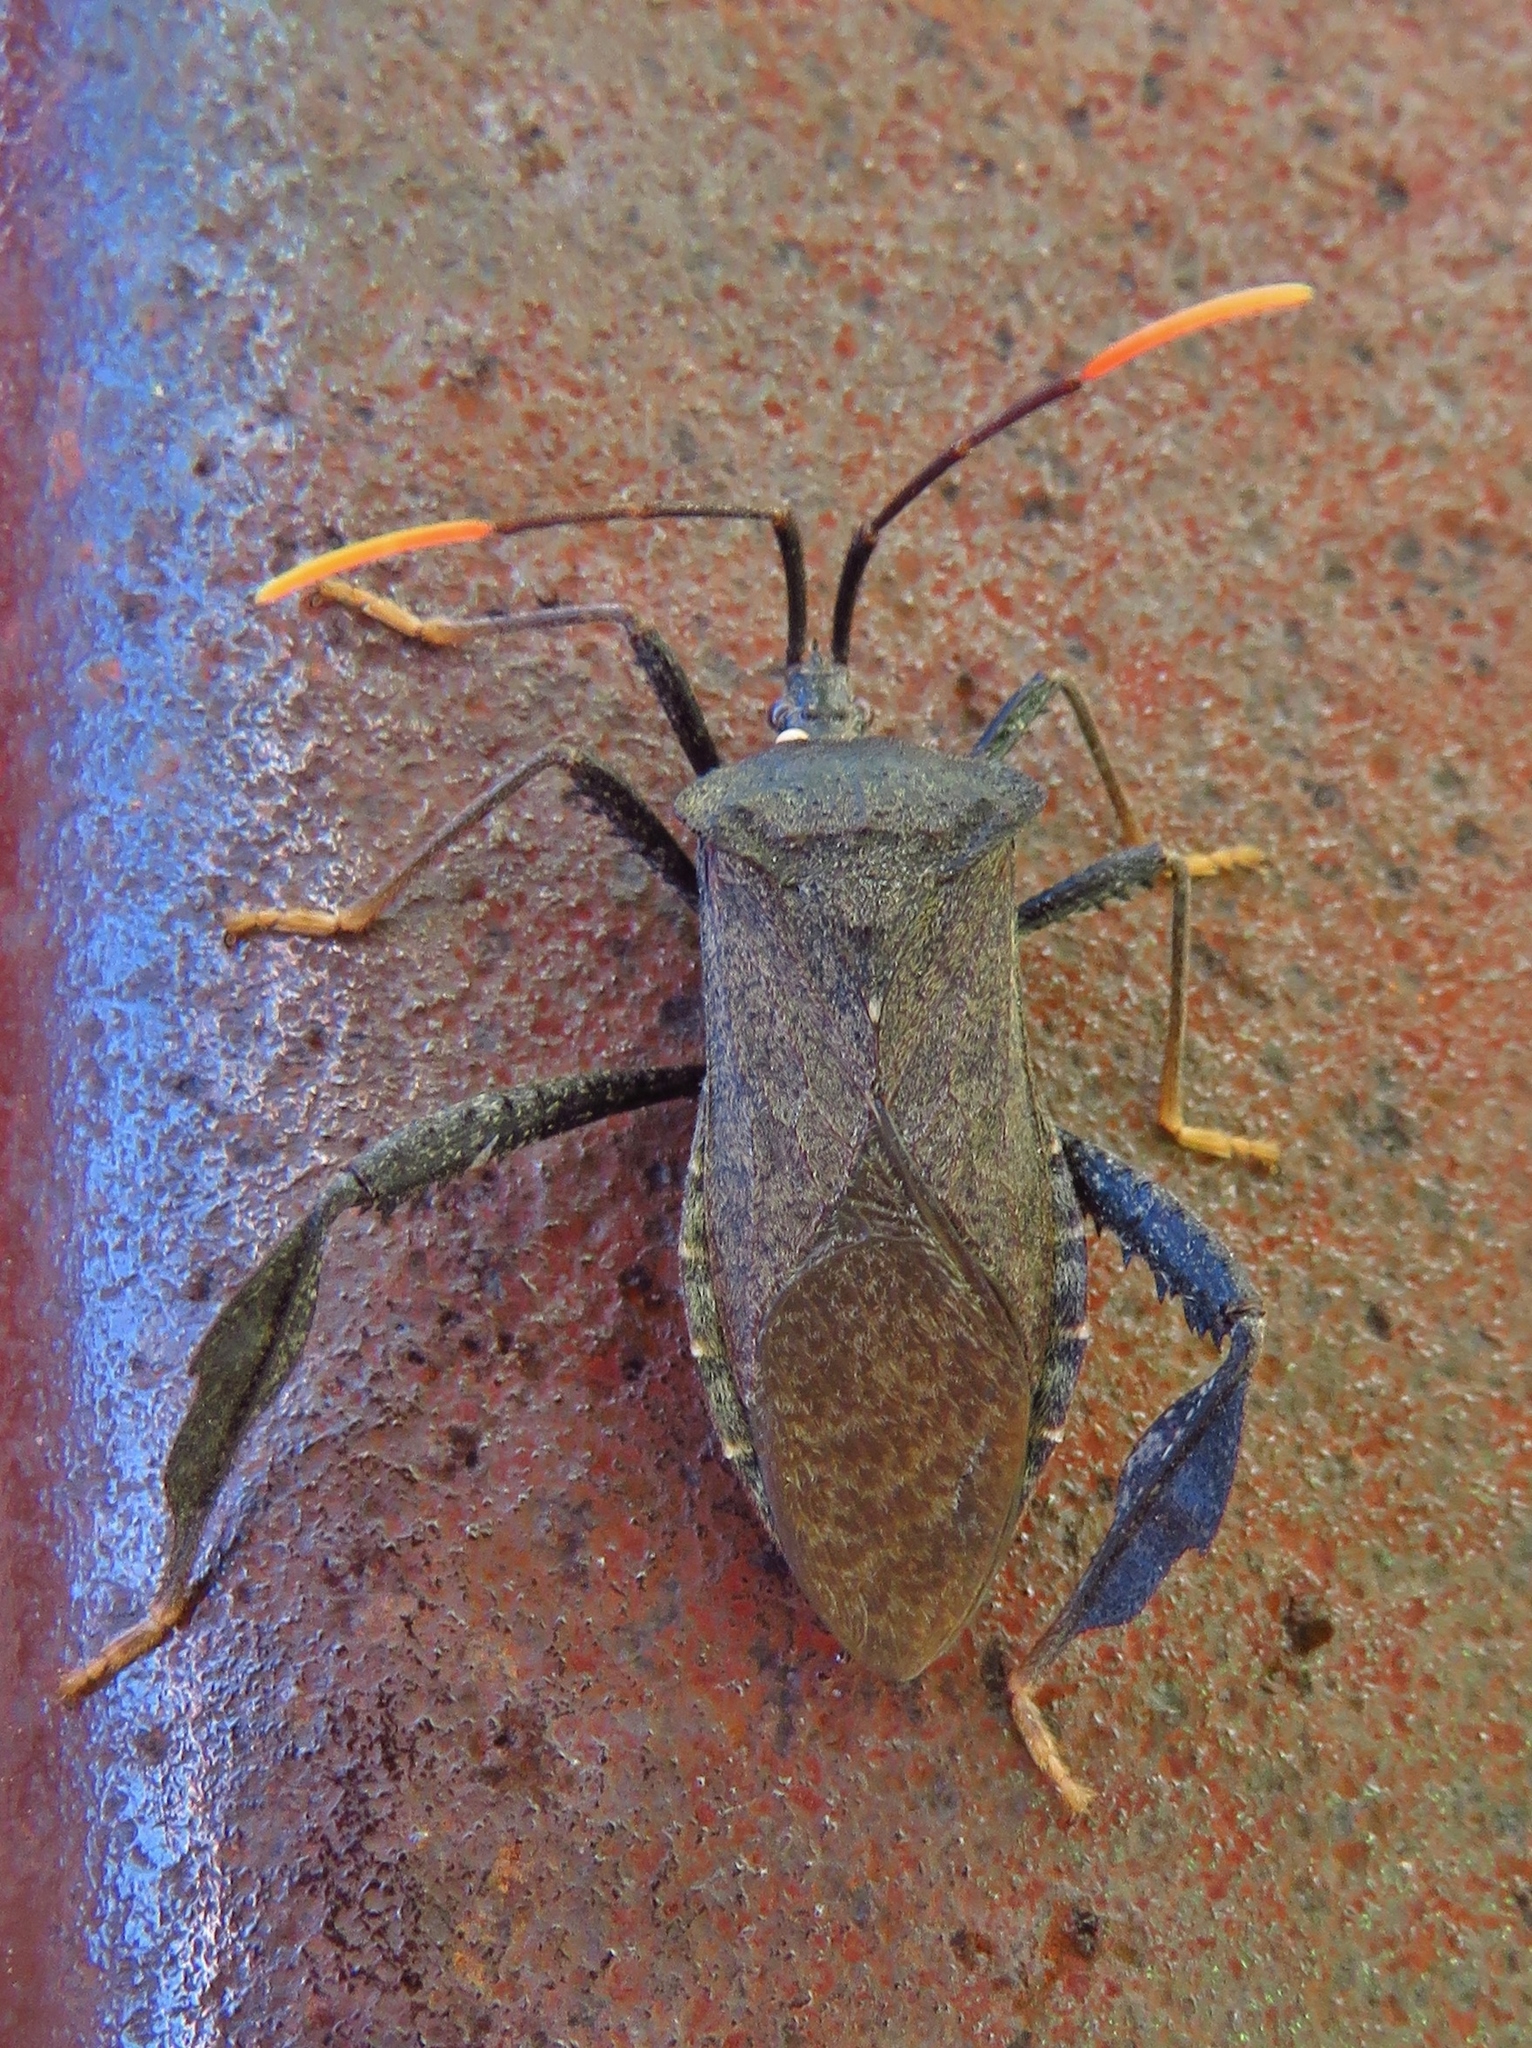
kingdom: Animalia
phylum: Arthropoda
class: Insecta
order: Hemiptera
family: Coreidae
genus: Acanthocephala
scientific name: Acanthocephala terminalis
